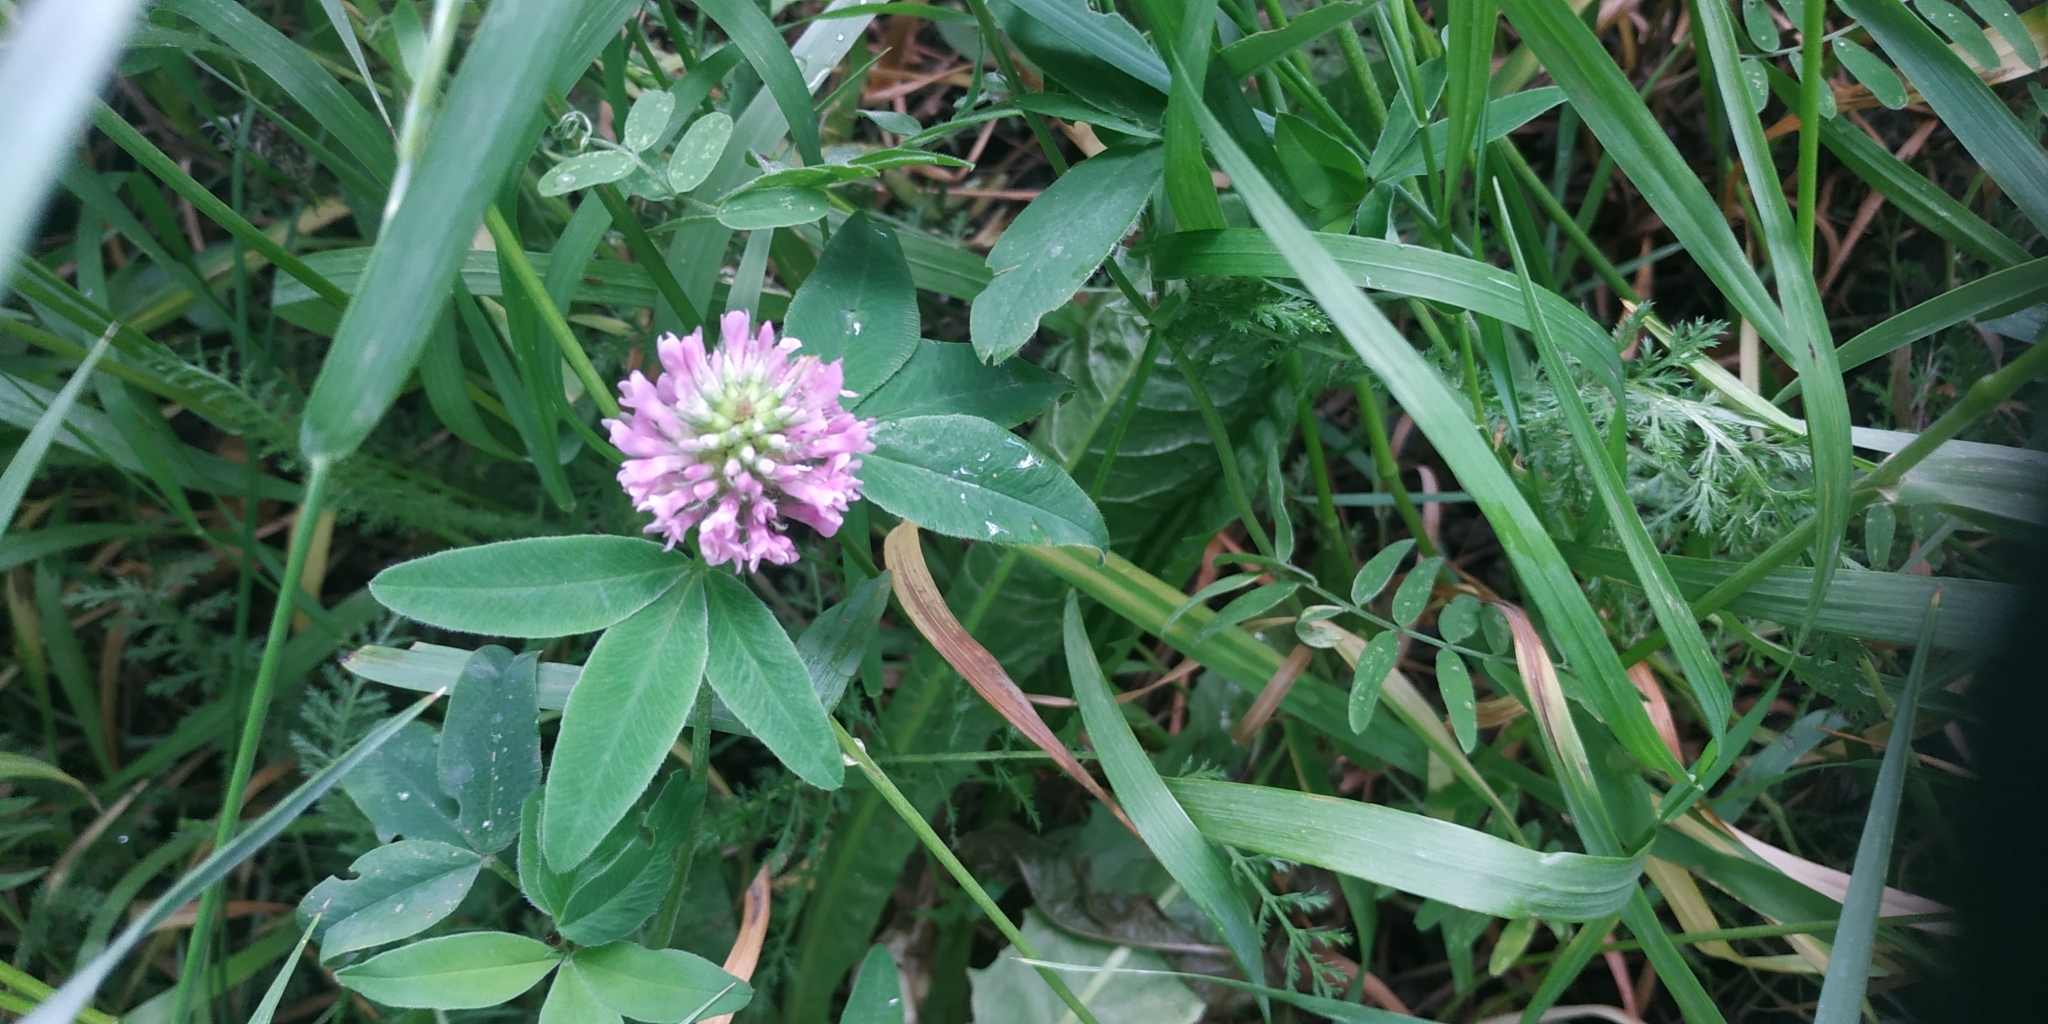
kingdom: Plantae
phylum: Tracheophyta
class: Magnoliopsida
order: Fabales
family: Fabaceae
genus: Trifolium
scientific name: Trifolium medium
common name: Zigzag clover
